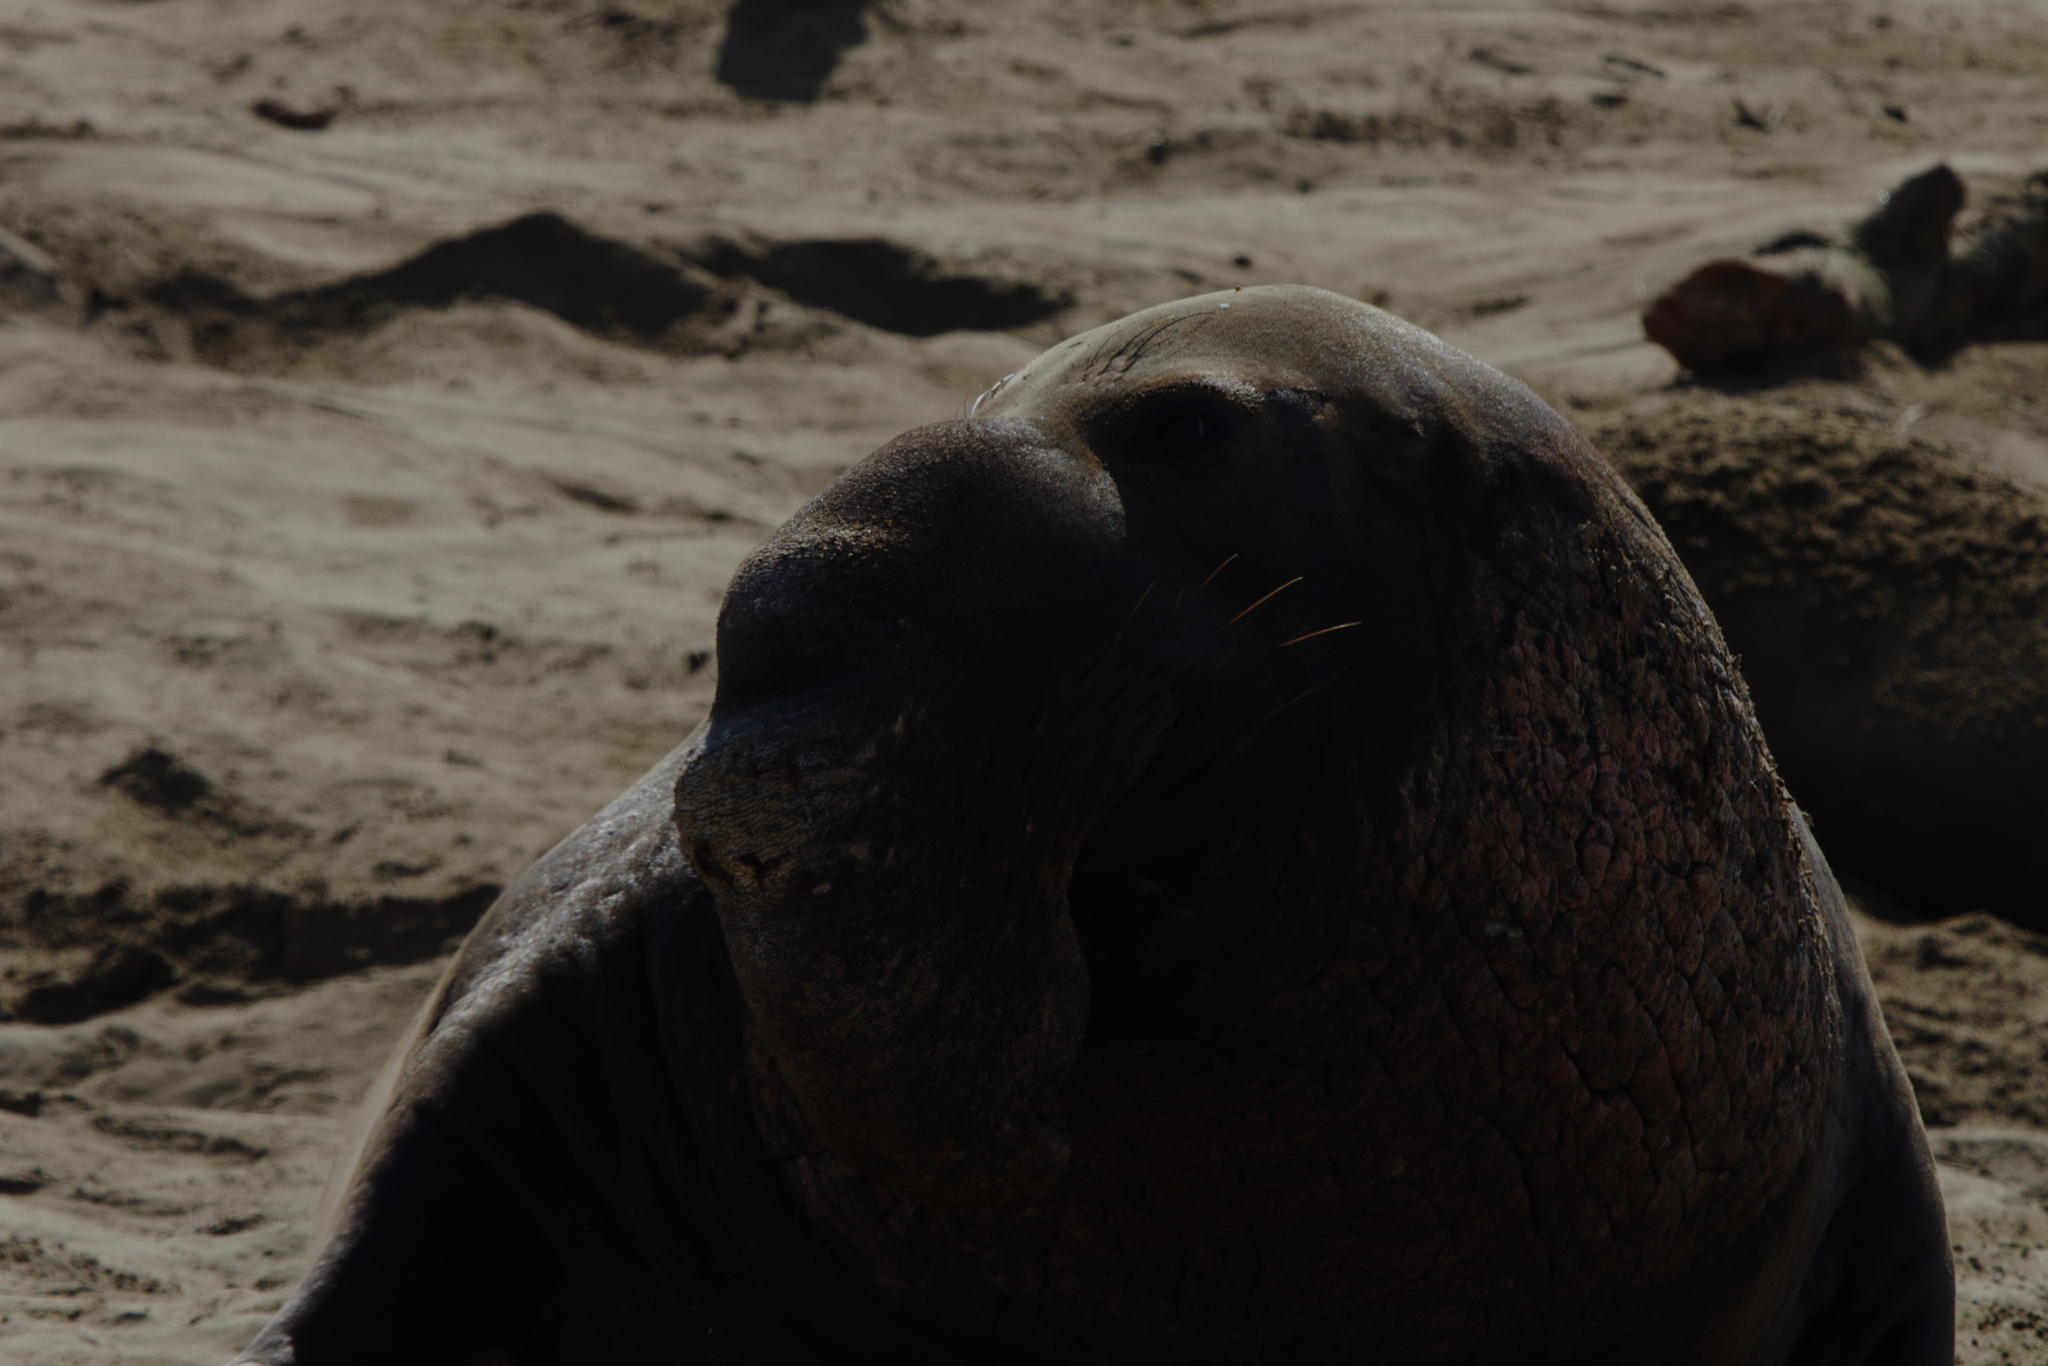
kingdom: Animalia
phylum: Chordata
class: Mammalia
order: Carnivora
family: Phocidae
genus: Mirounga
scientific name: Mirounga angustirostris
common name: Northern elephant seal
